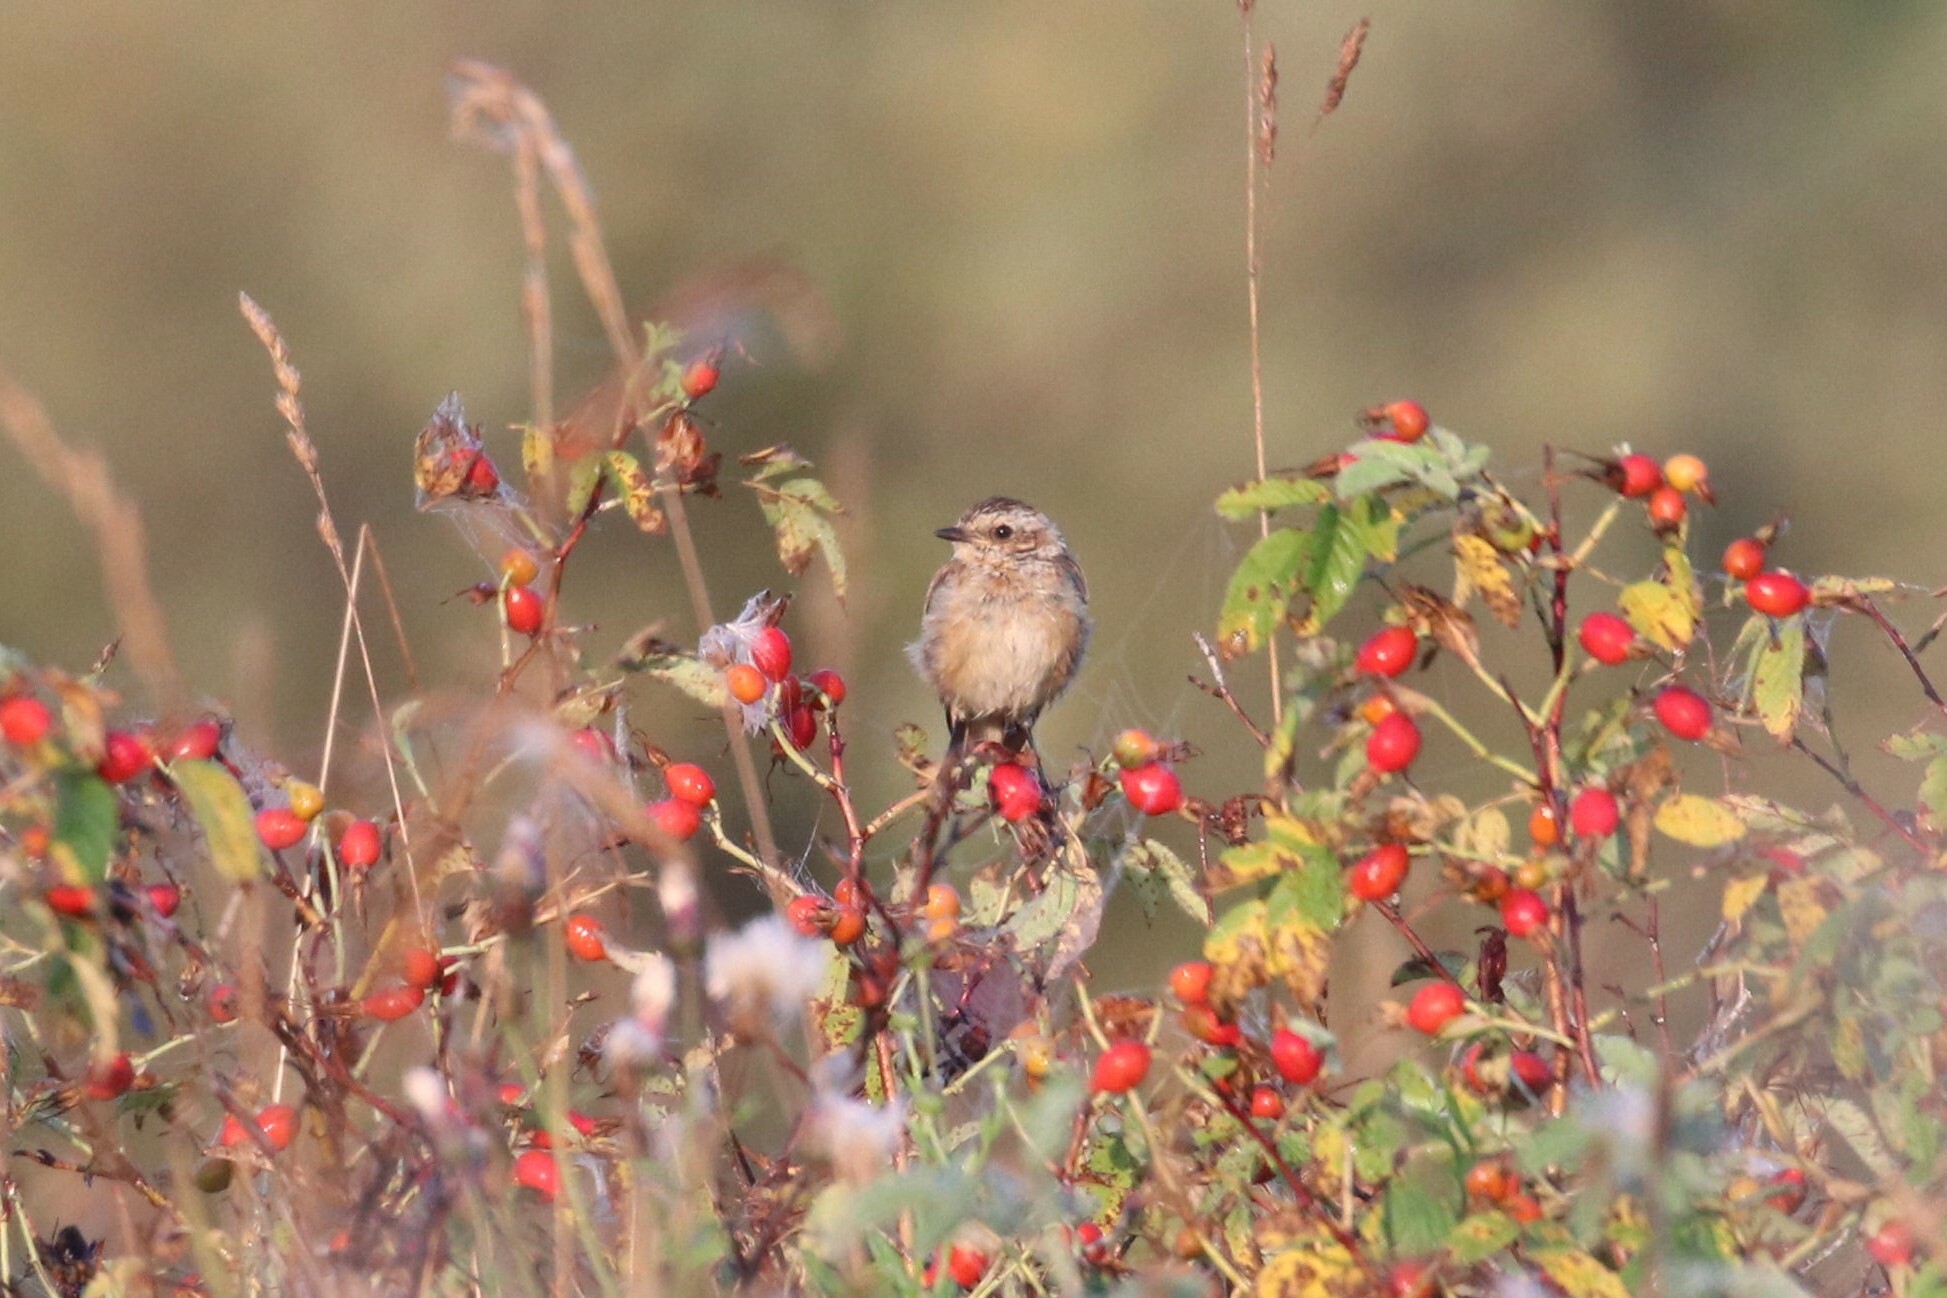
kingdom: Animalia
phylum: Chordata
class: Aves
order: Passeriformes
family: Muscicapidae
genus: Saxicola
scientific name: Saxicola rubetra
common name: Whinchat
